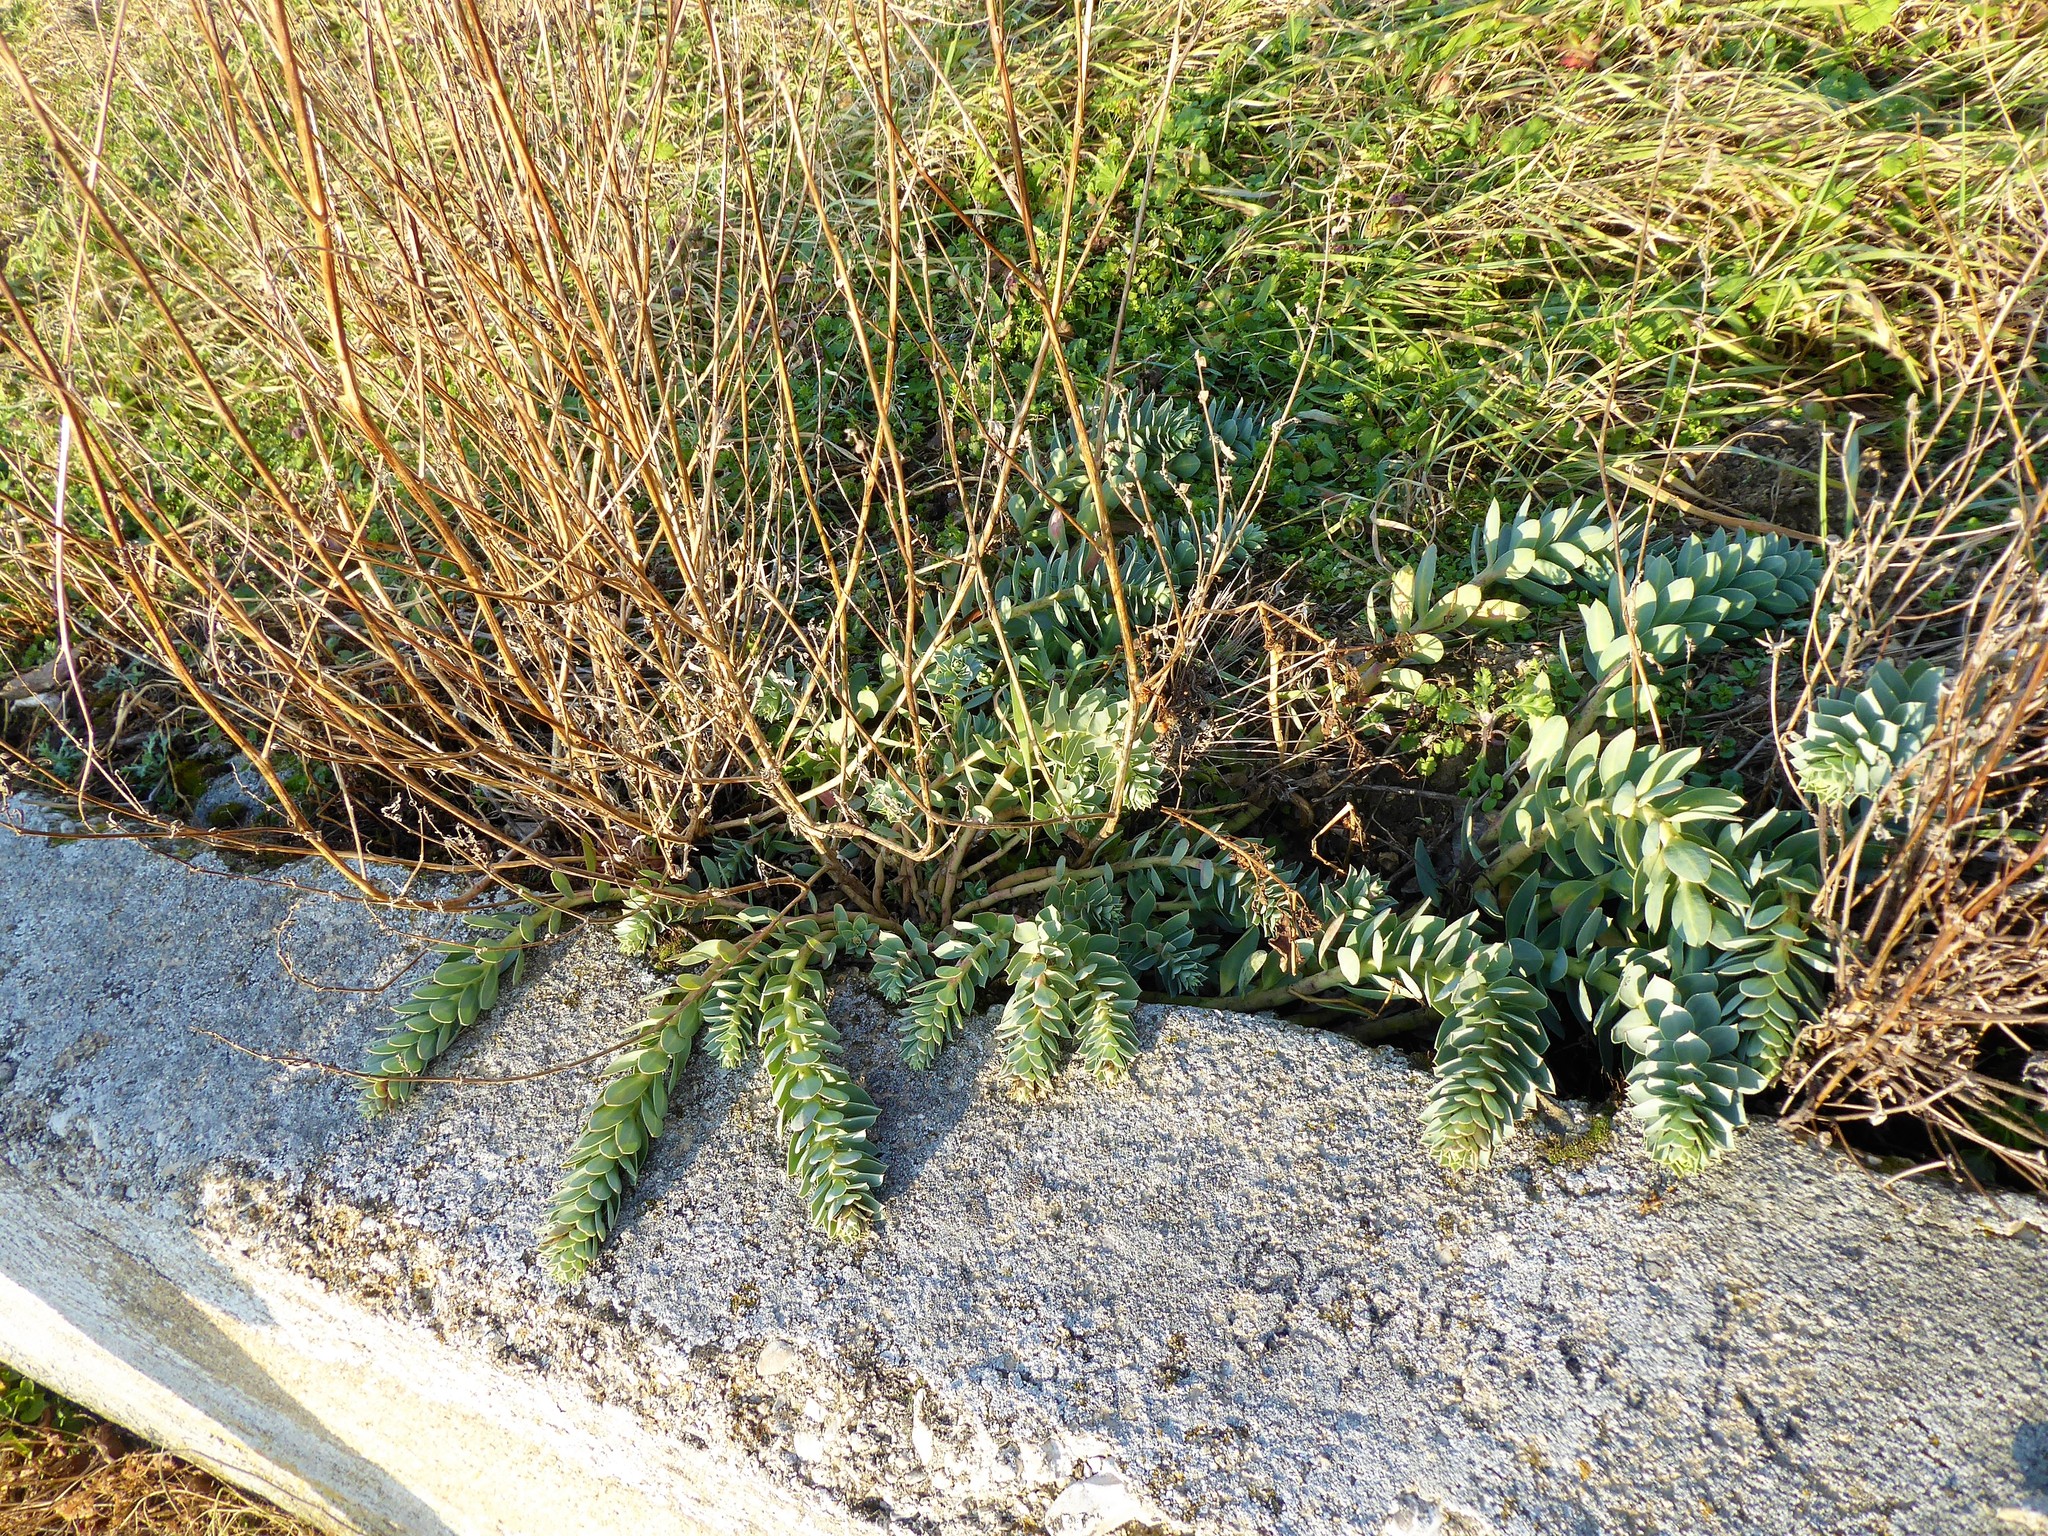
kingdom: Plantae
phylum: Tracheophyta
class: Magnoliopsida
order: Malpighiales
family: Euphorbiaceae
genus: Euphorbia
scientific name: Euphorbia myrsinites
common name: Myrtle spurge
